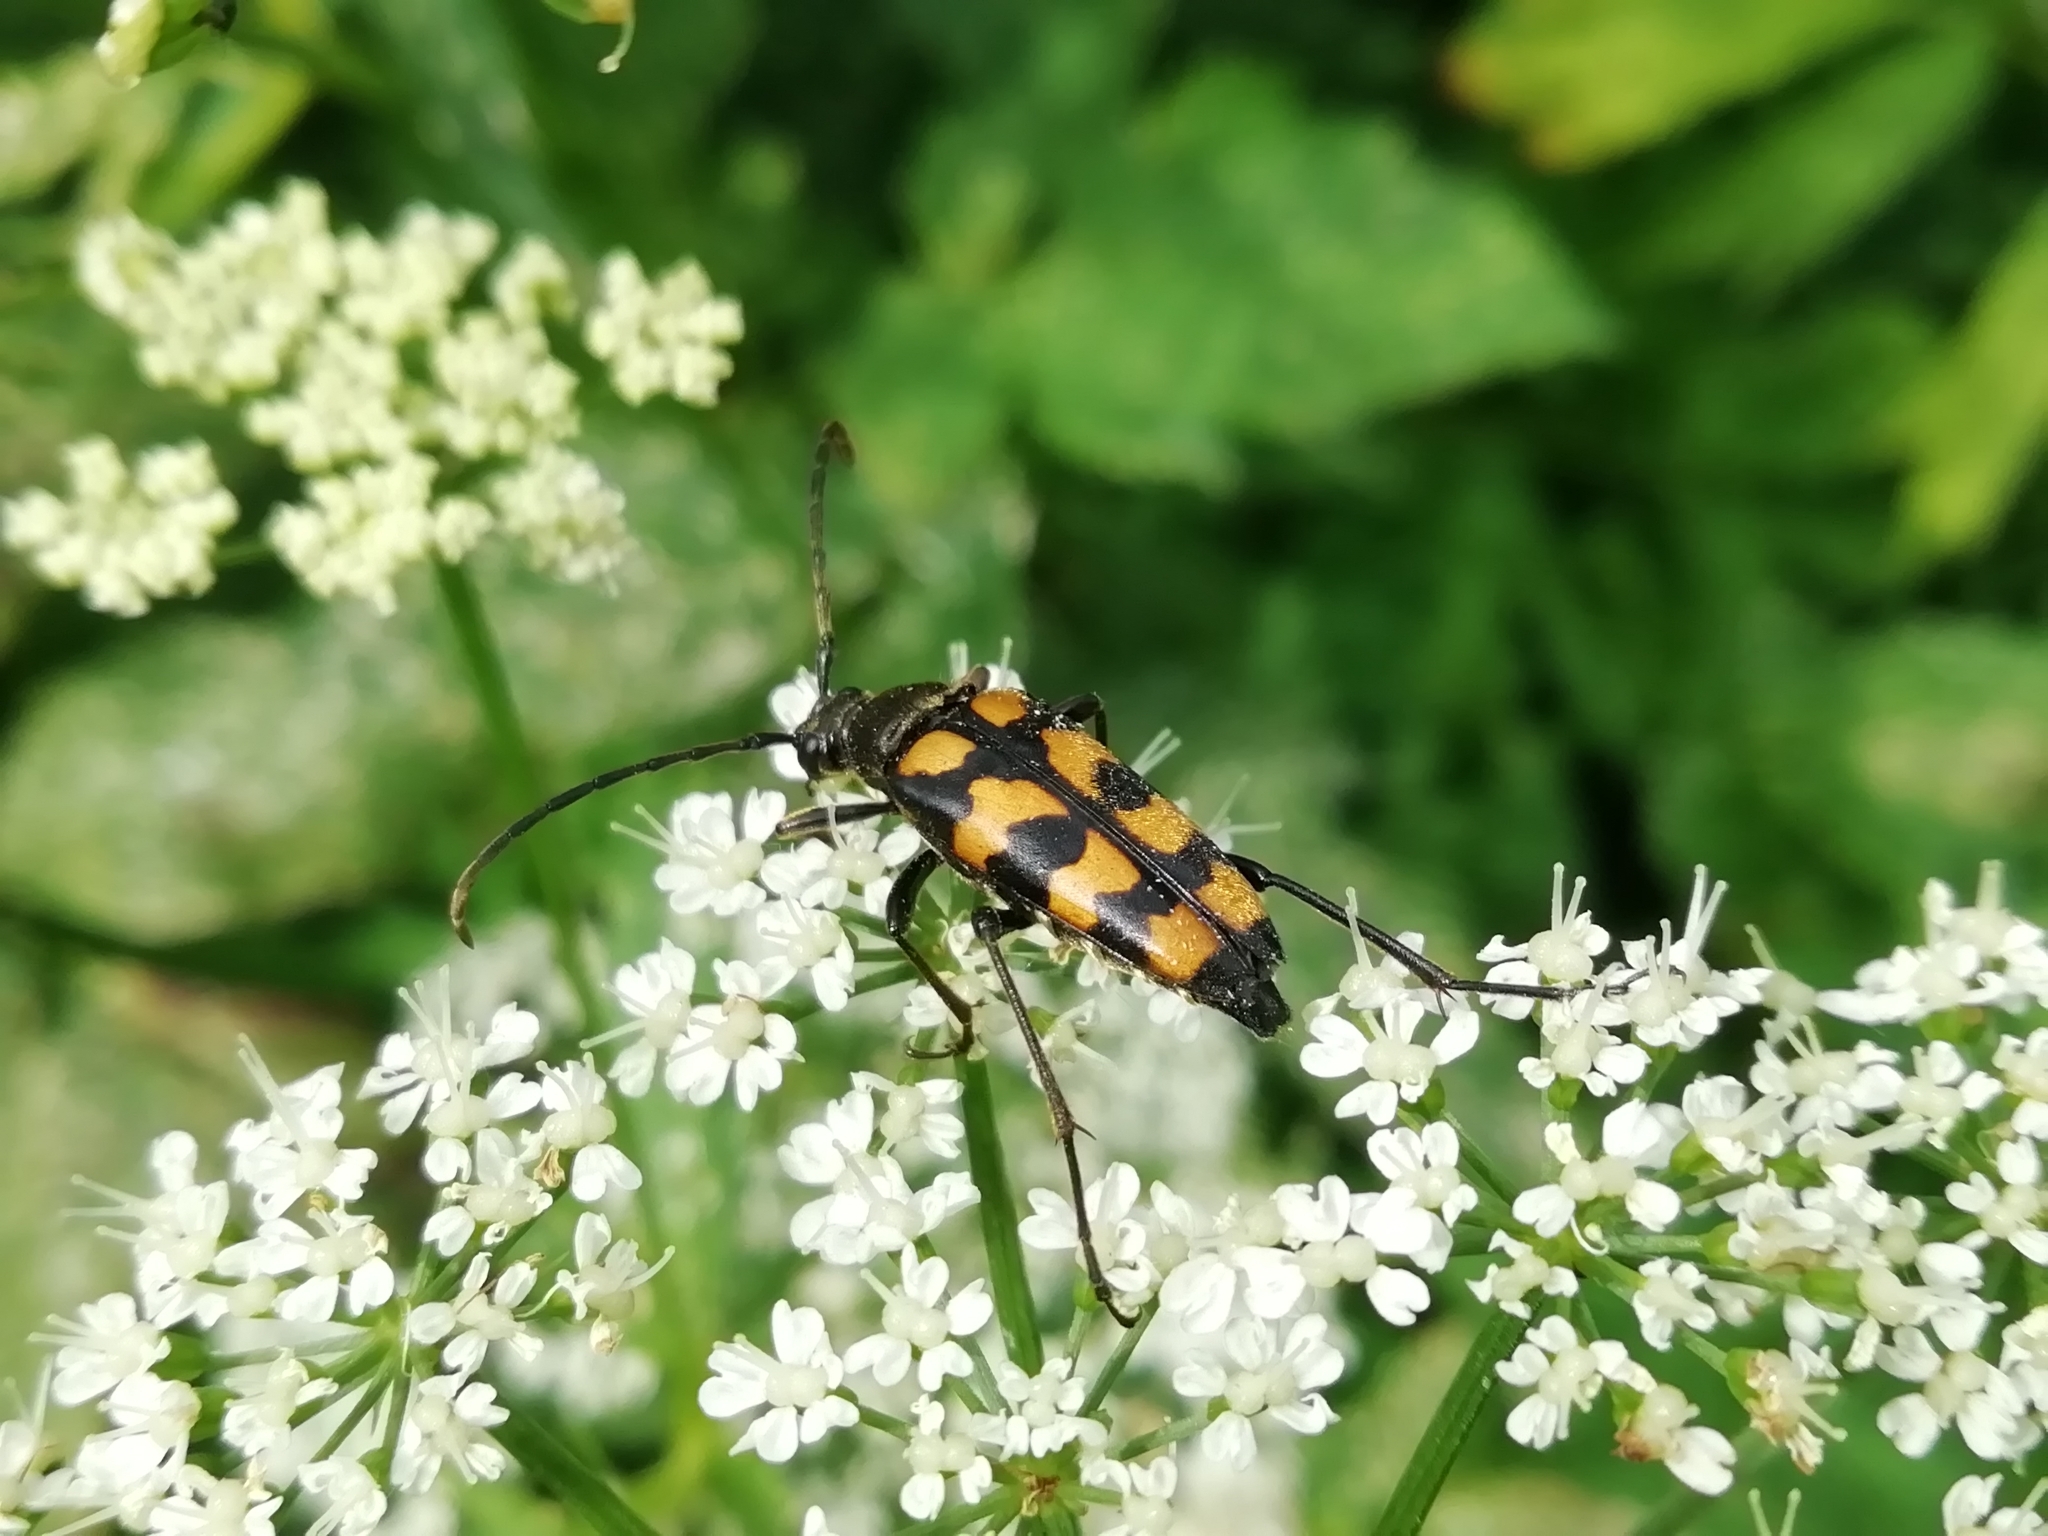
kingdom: Animalia
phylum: Arthropoda
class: Insecta
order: Coleoptera
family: Cerambycidae
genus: Leptura
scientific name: Leptura quadrifasciata
